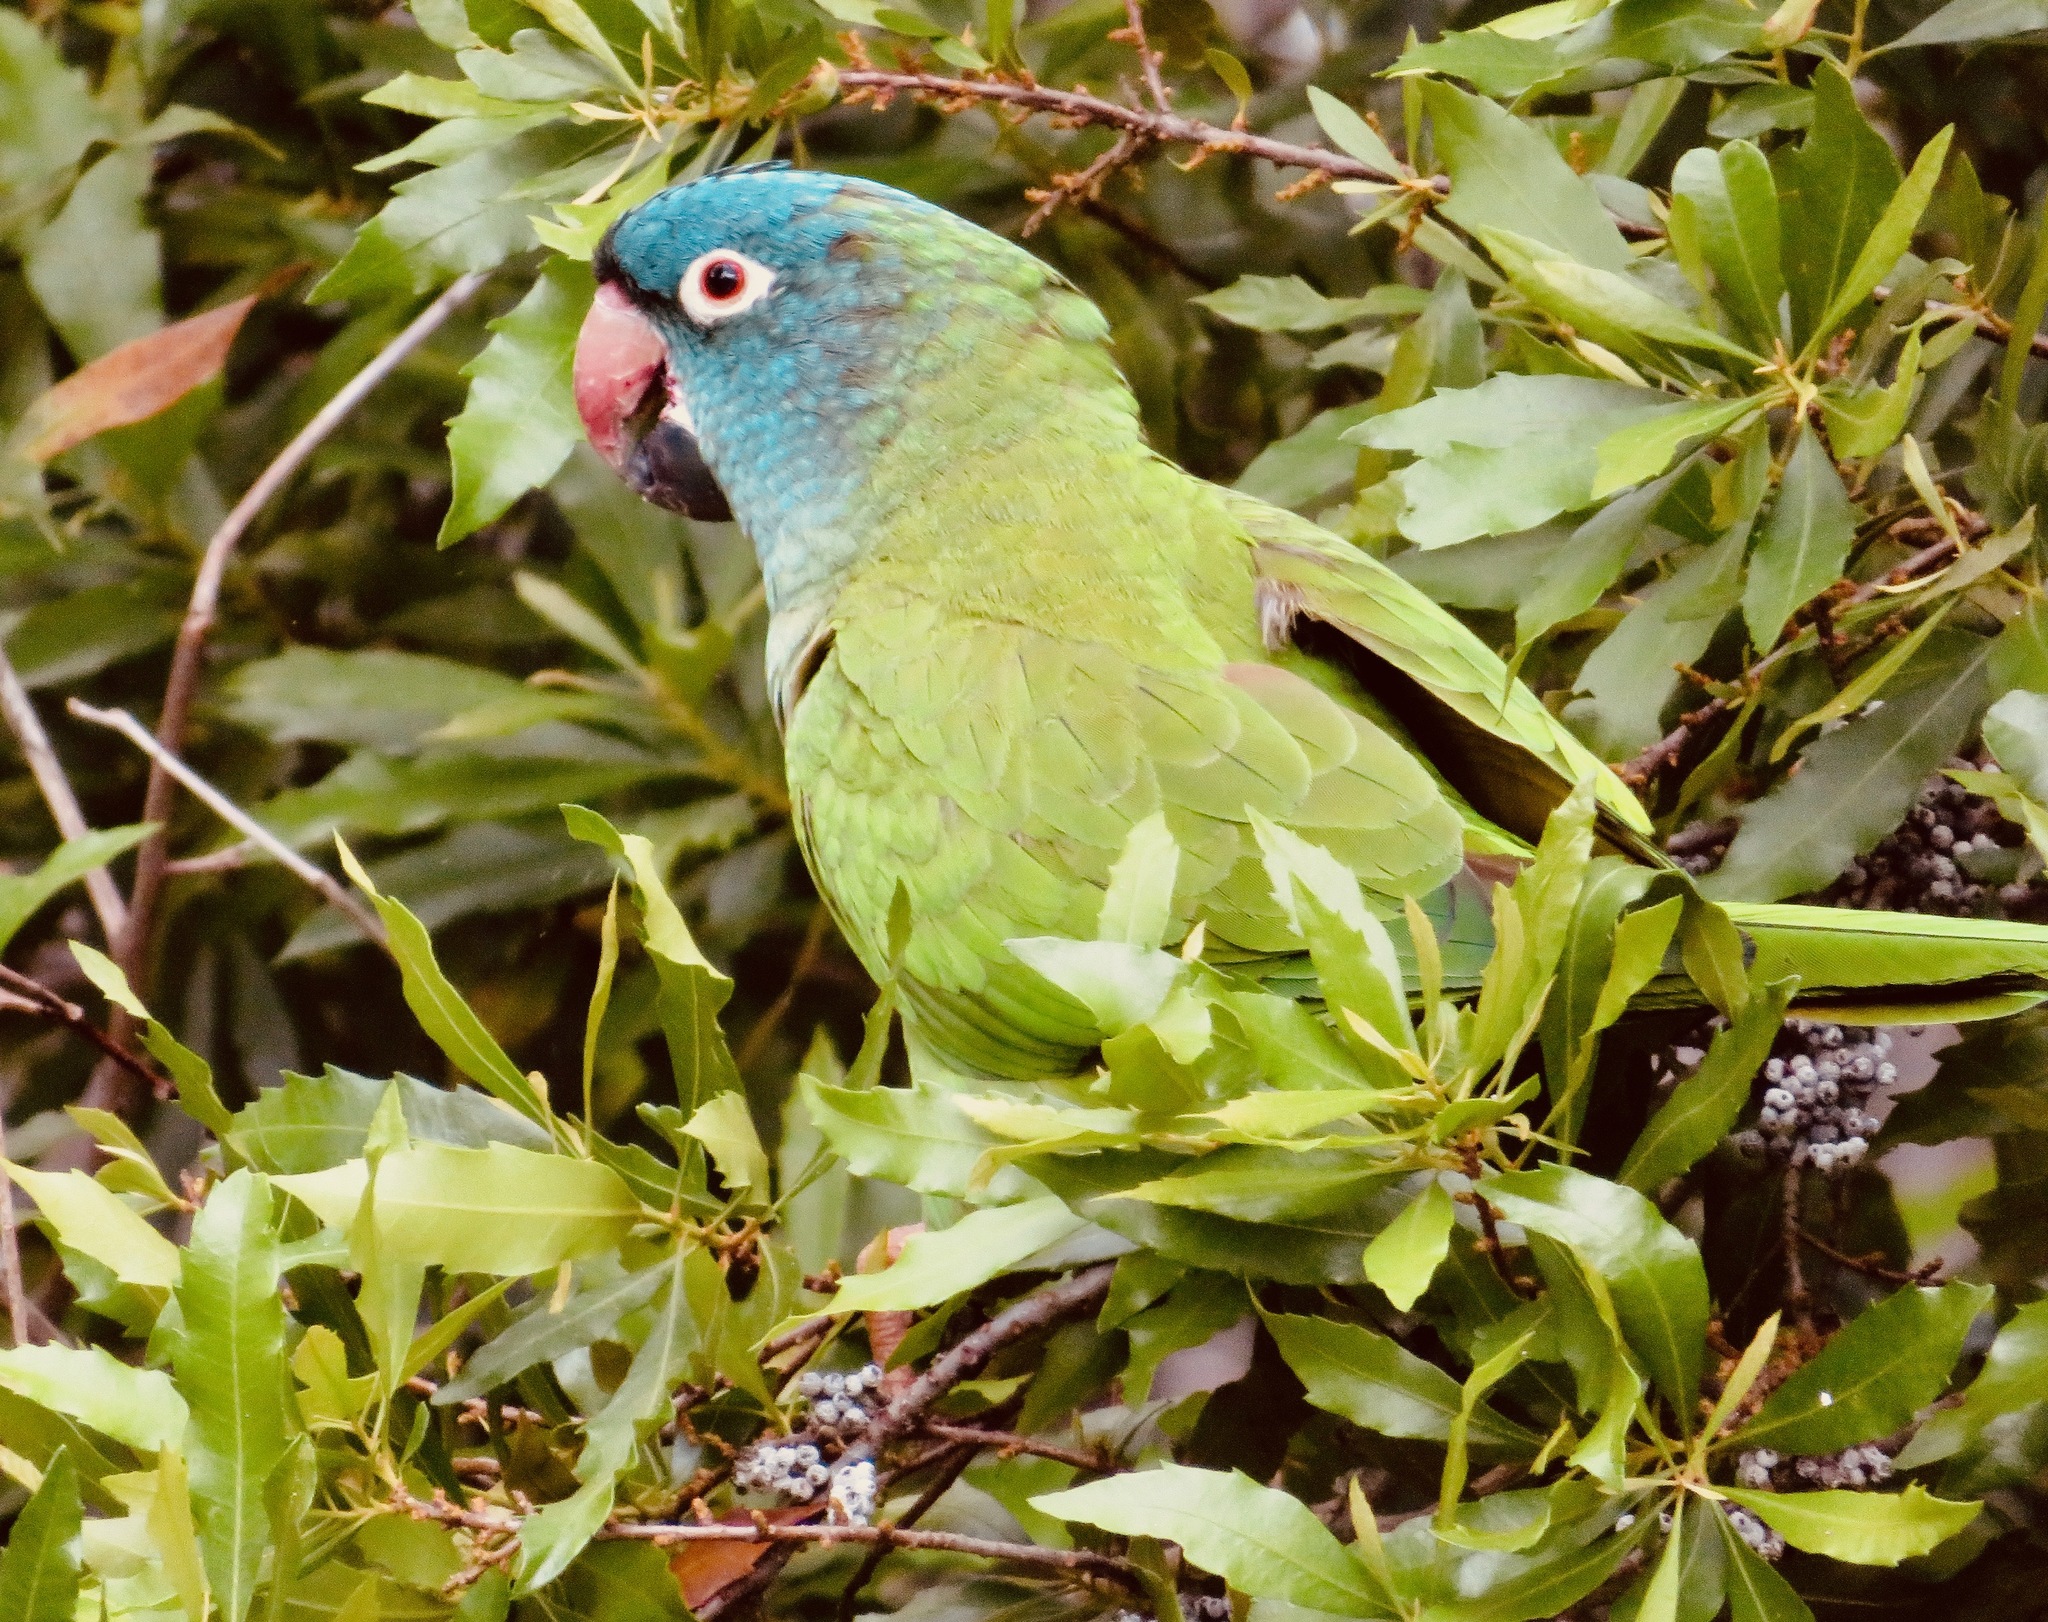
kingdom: Animalia
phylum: Chordata
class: Aves
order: Psittaciformes
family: Psittacidae
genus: Aratinga
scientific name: Aratinga acuticaudata
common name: Blue-crowned parakeet
